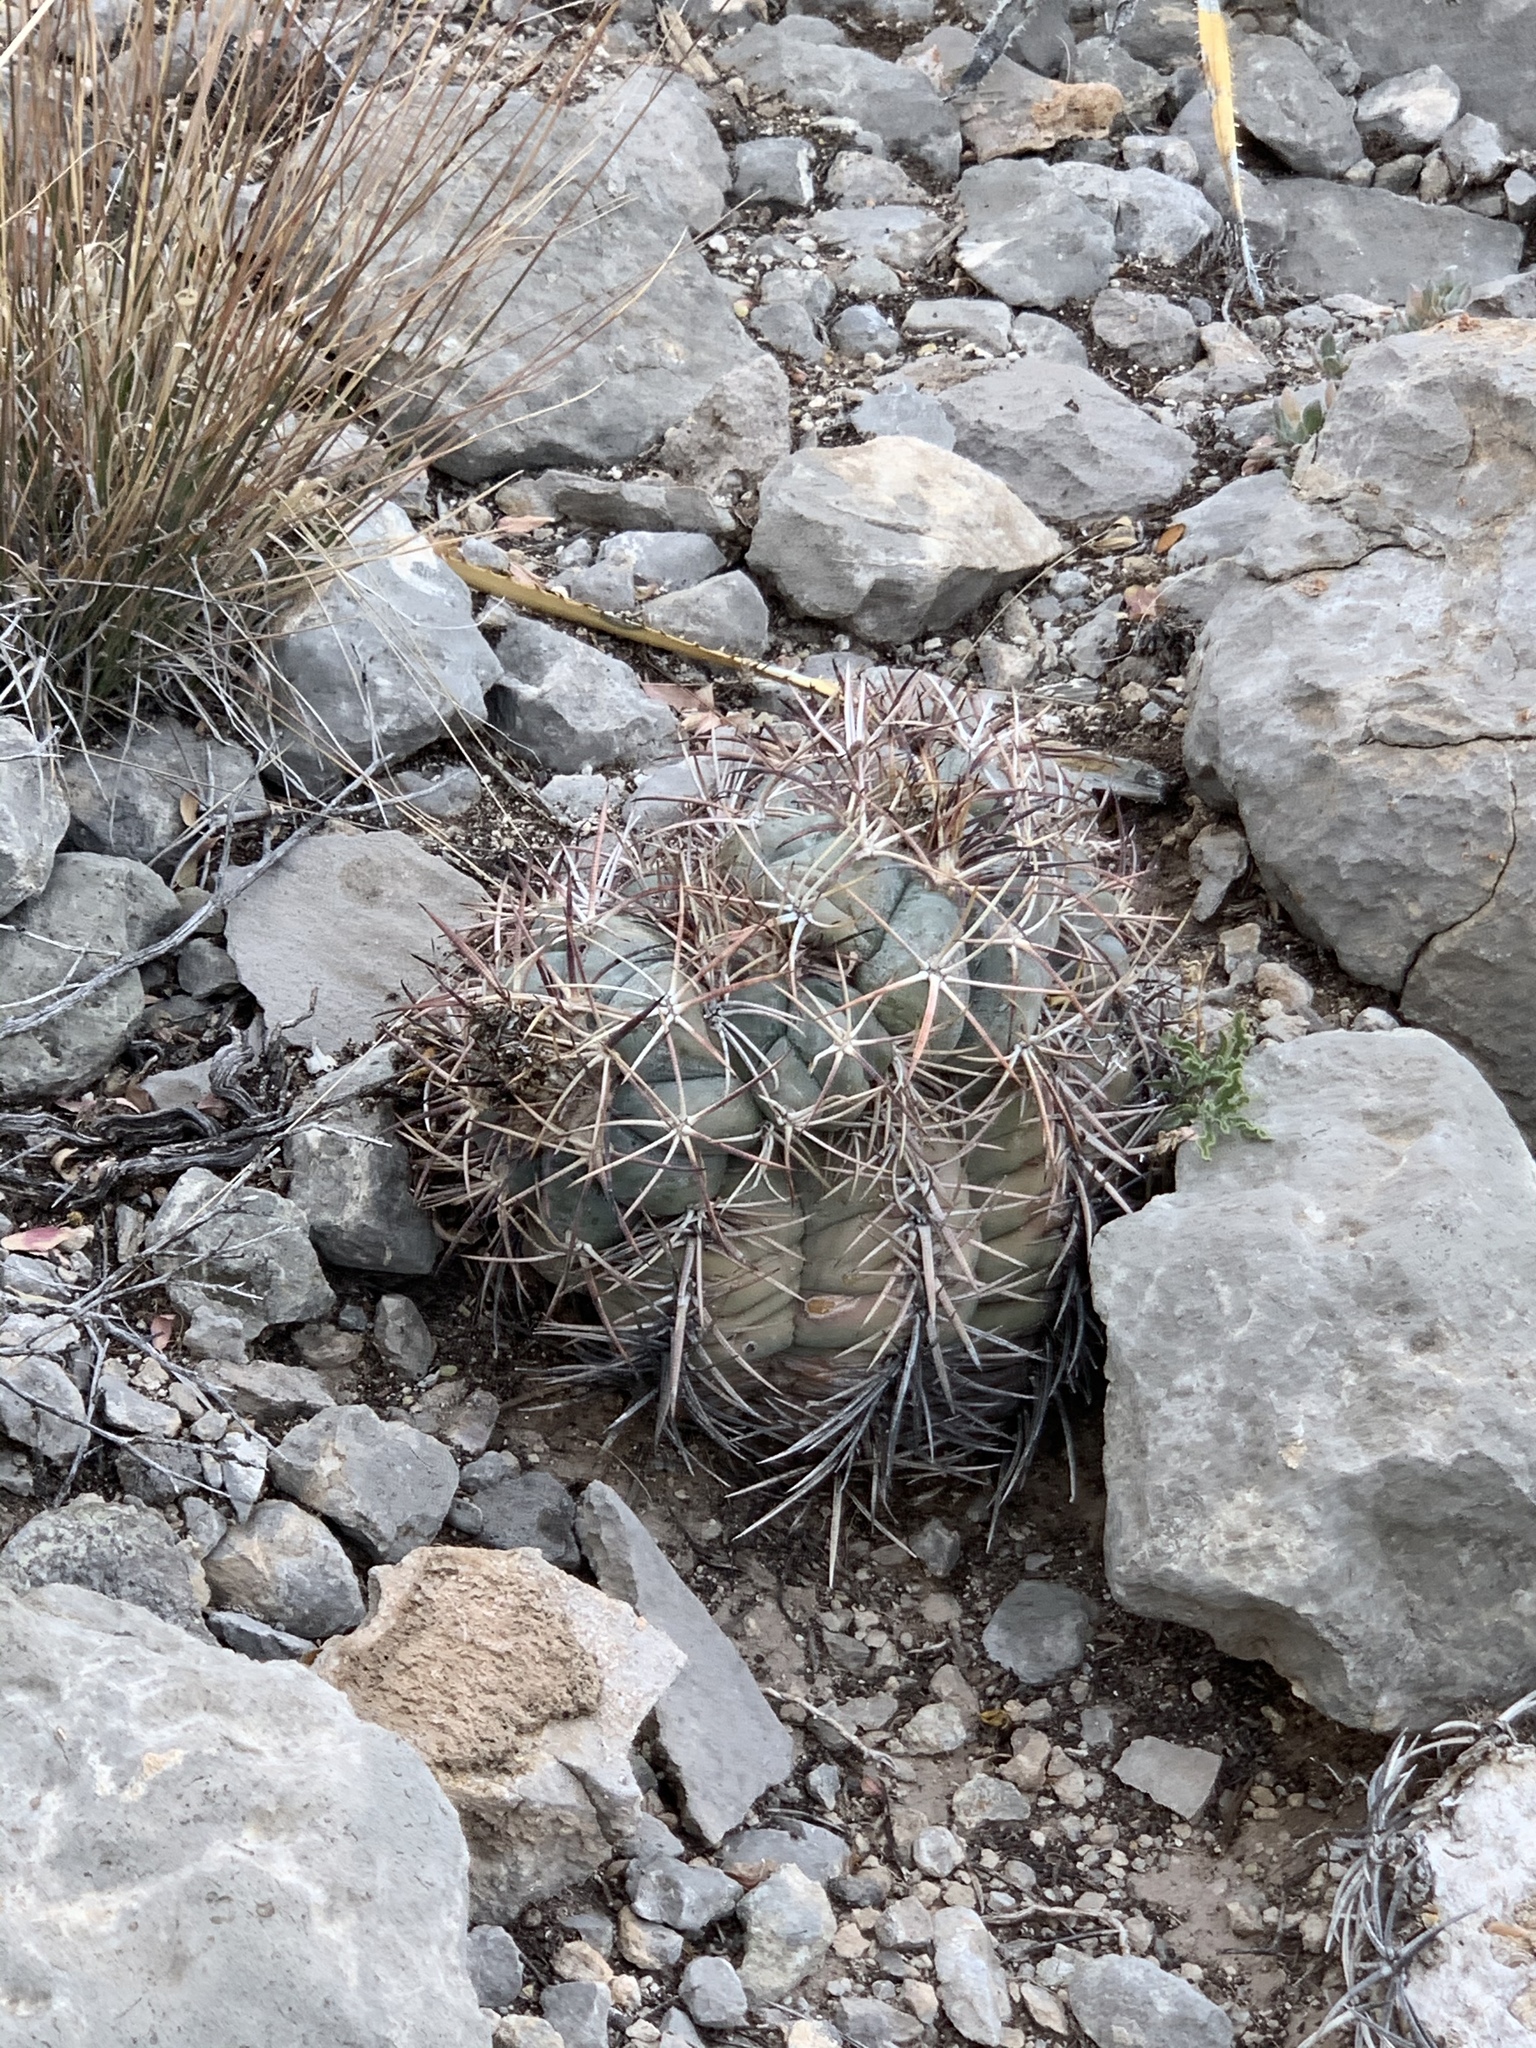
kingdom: Plantae
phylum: Tracheophyta
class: Magnoliopsida
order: Caryophyllales
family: Cactaceae
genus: Echinocactus
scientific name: Echinocactus horizonthalonius
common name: Devilshead
